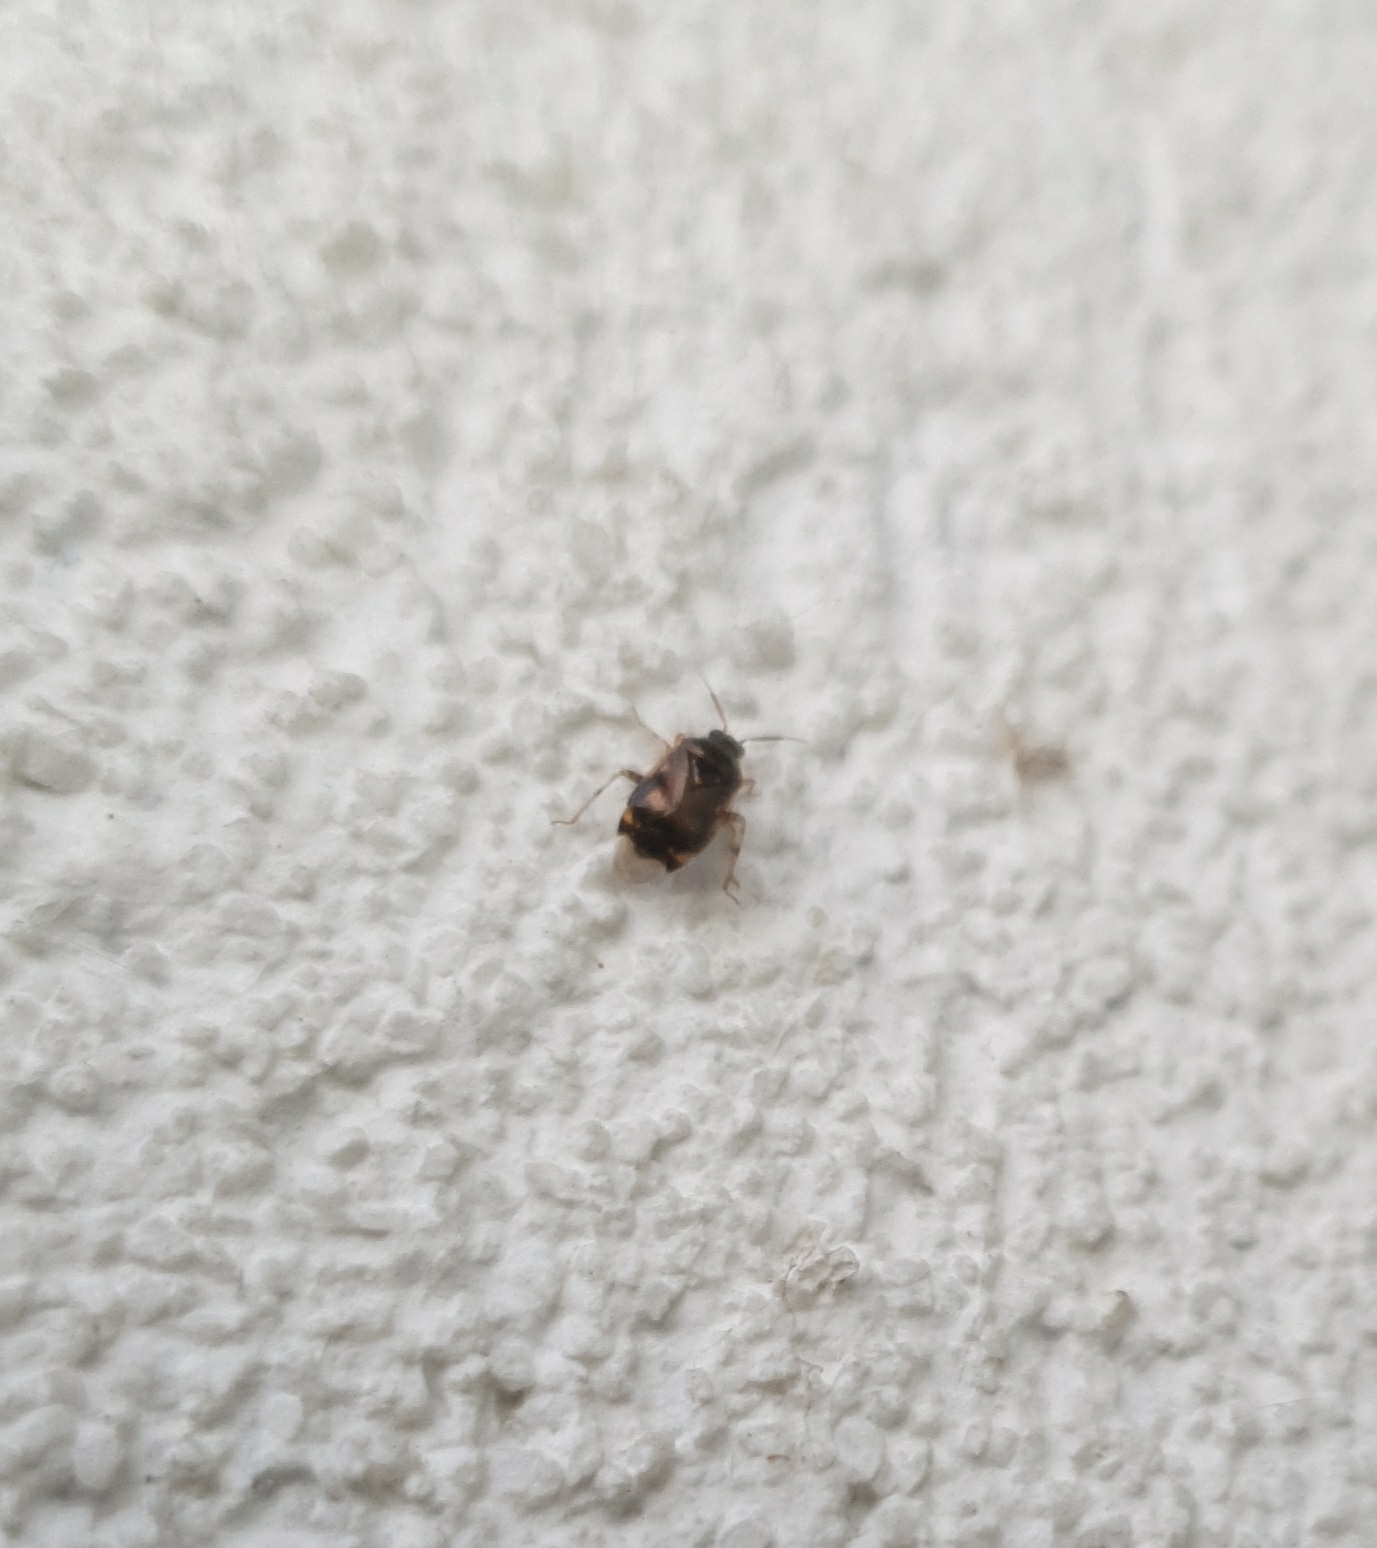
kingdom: Animalia
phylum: Arthropoda
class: Insecta
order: Hemiptera
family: Miridae
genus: Deraeocoris
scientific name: Deraeocoris lutescens
